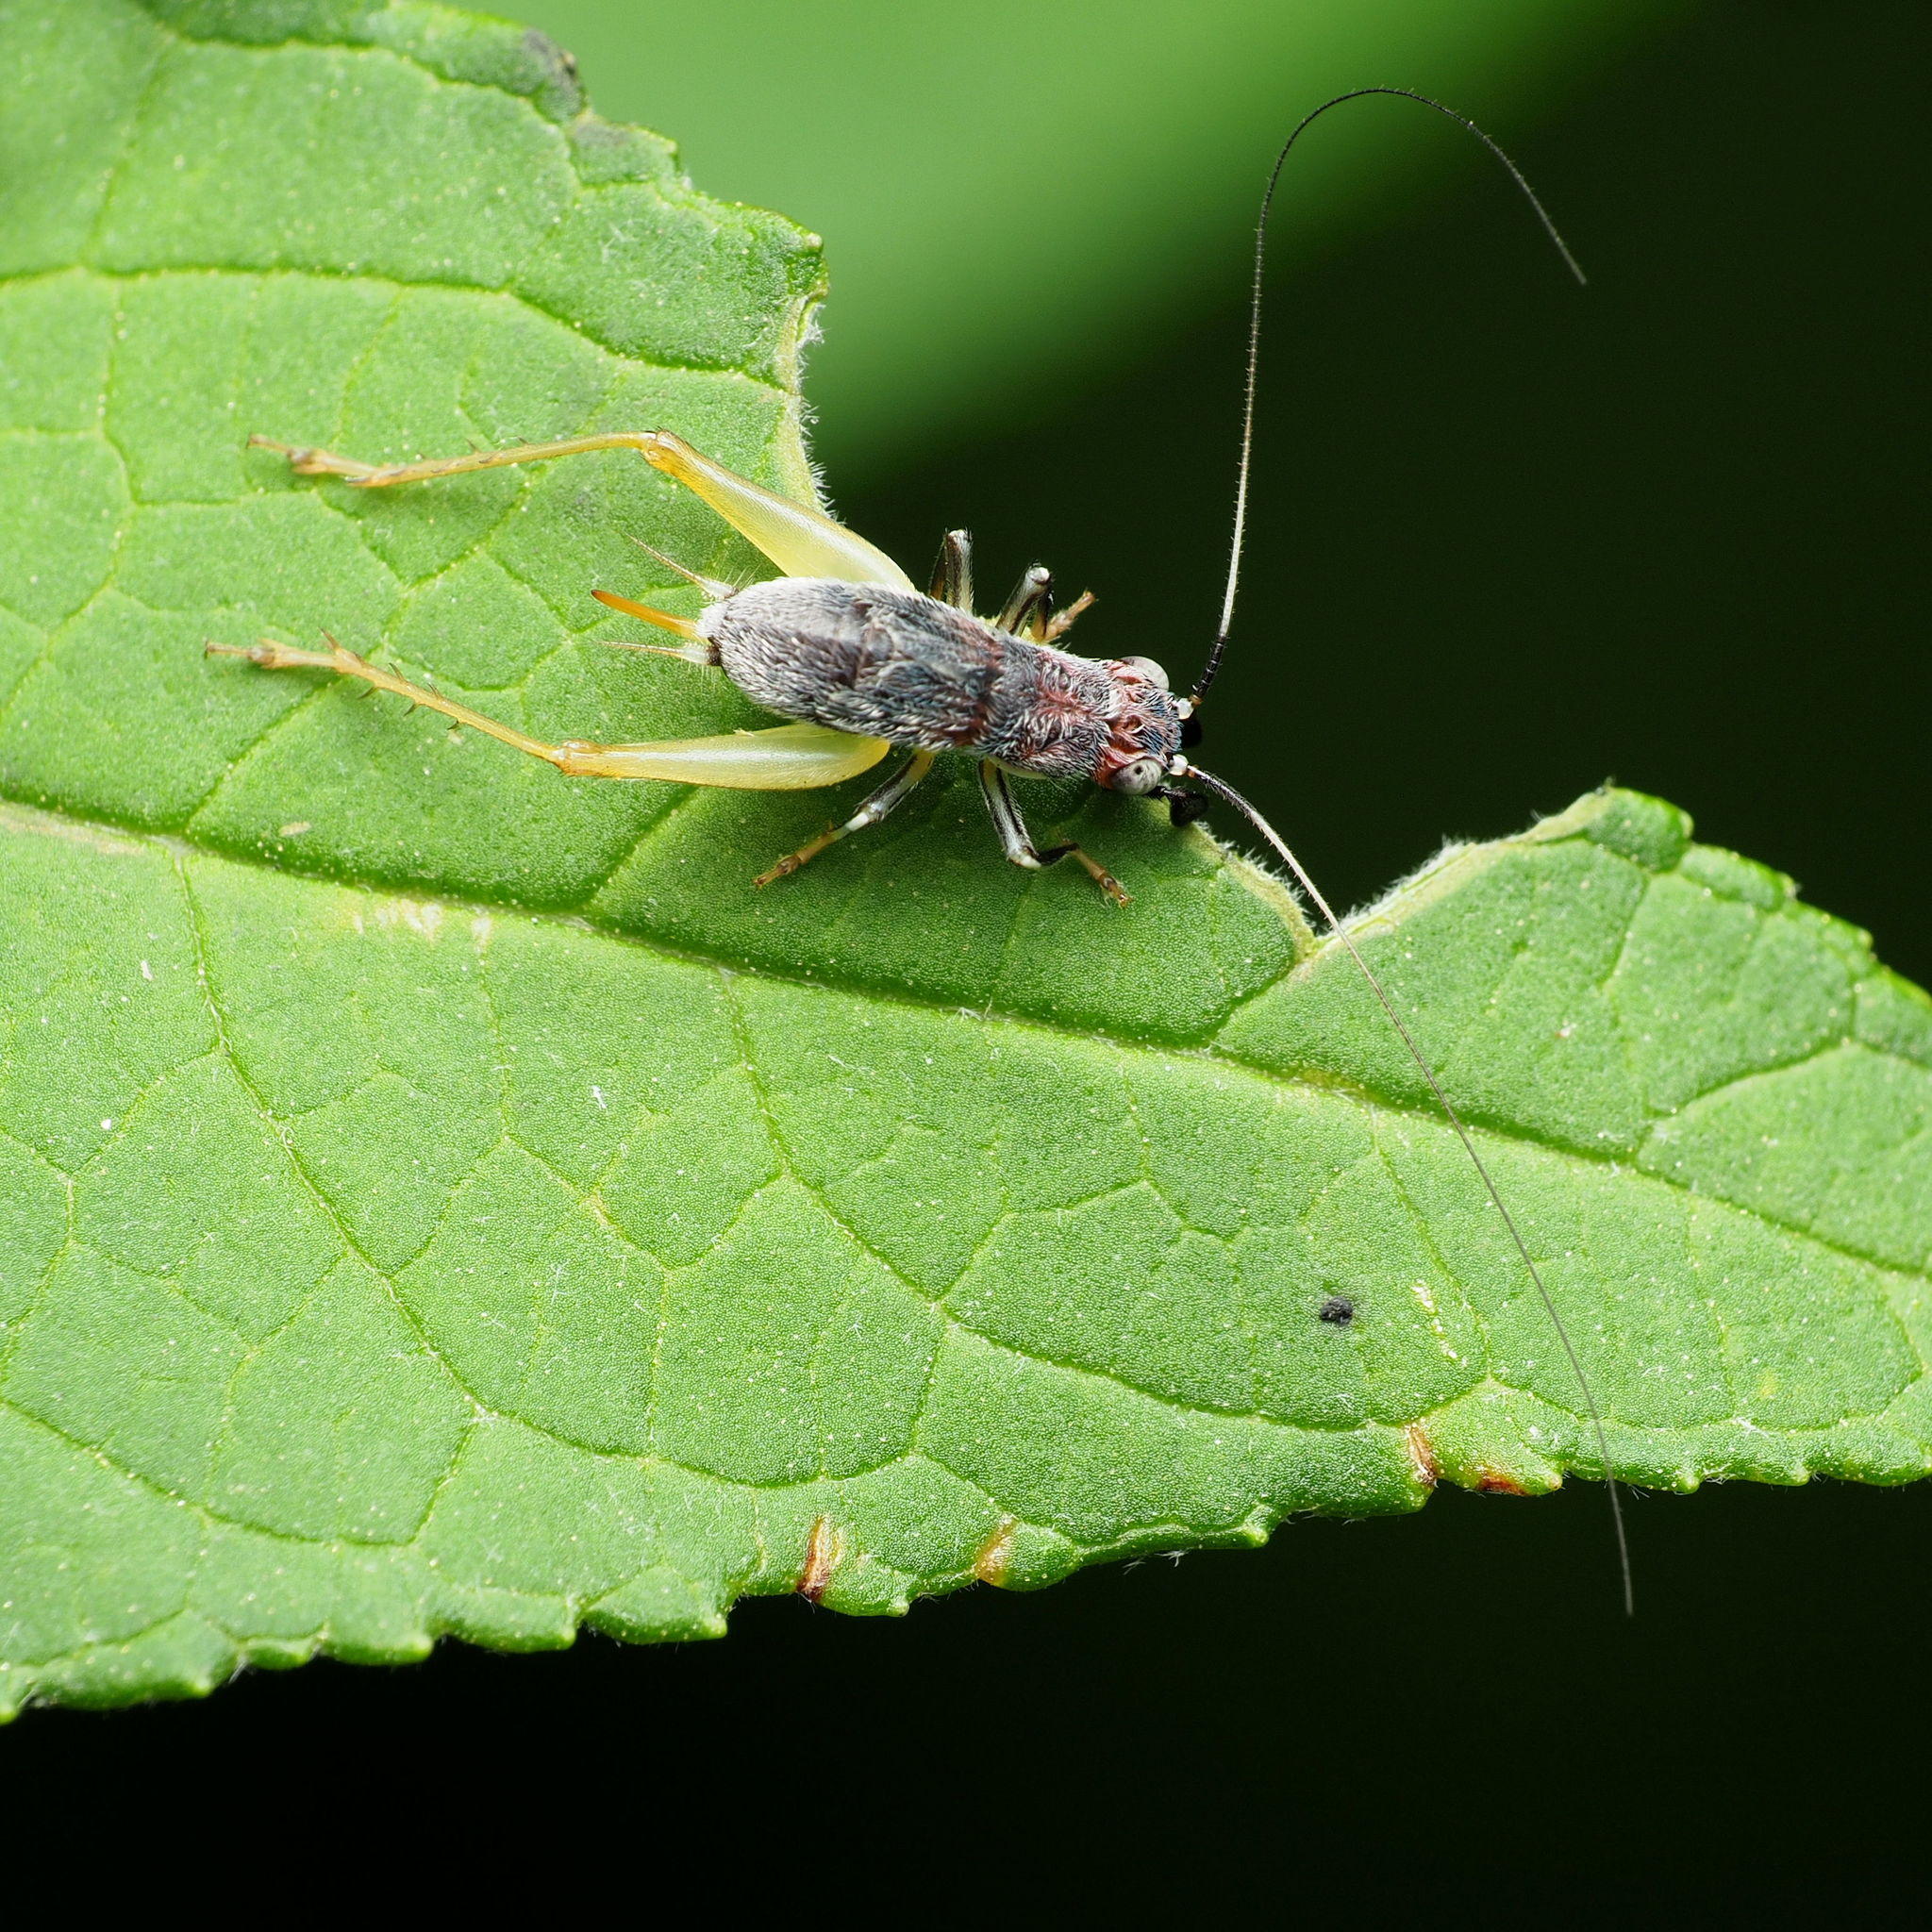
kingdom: Animalia
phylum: Arthropoda
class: Insecta
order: Orthoptera
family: Trigonidiidae
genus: Phyllopalpus
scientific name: Phyllopalpus pulchellus
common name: Handsome trig
